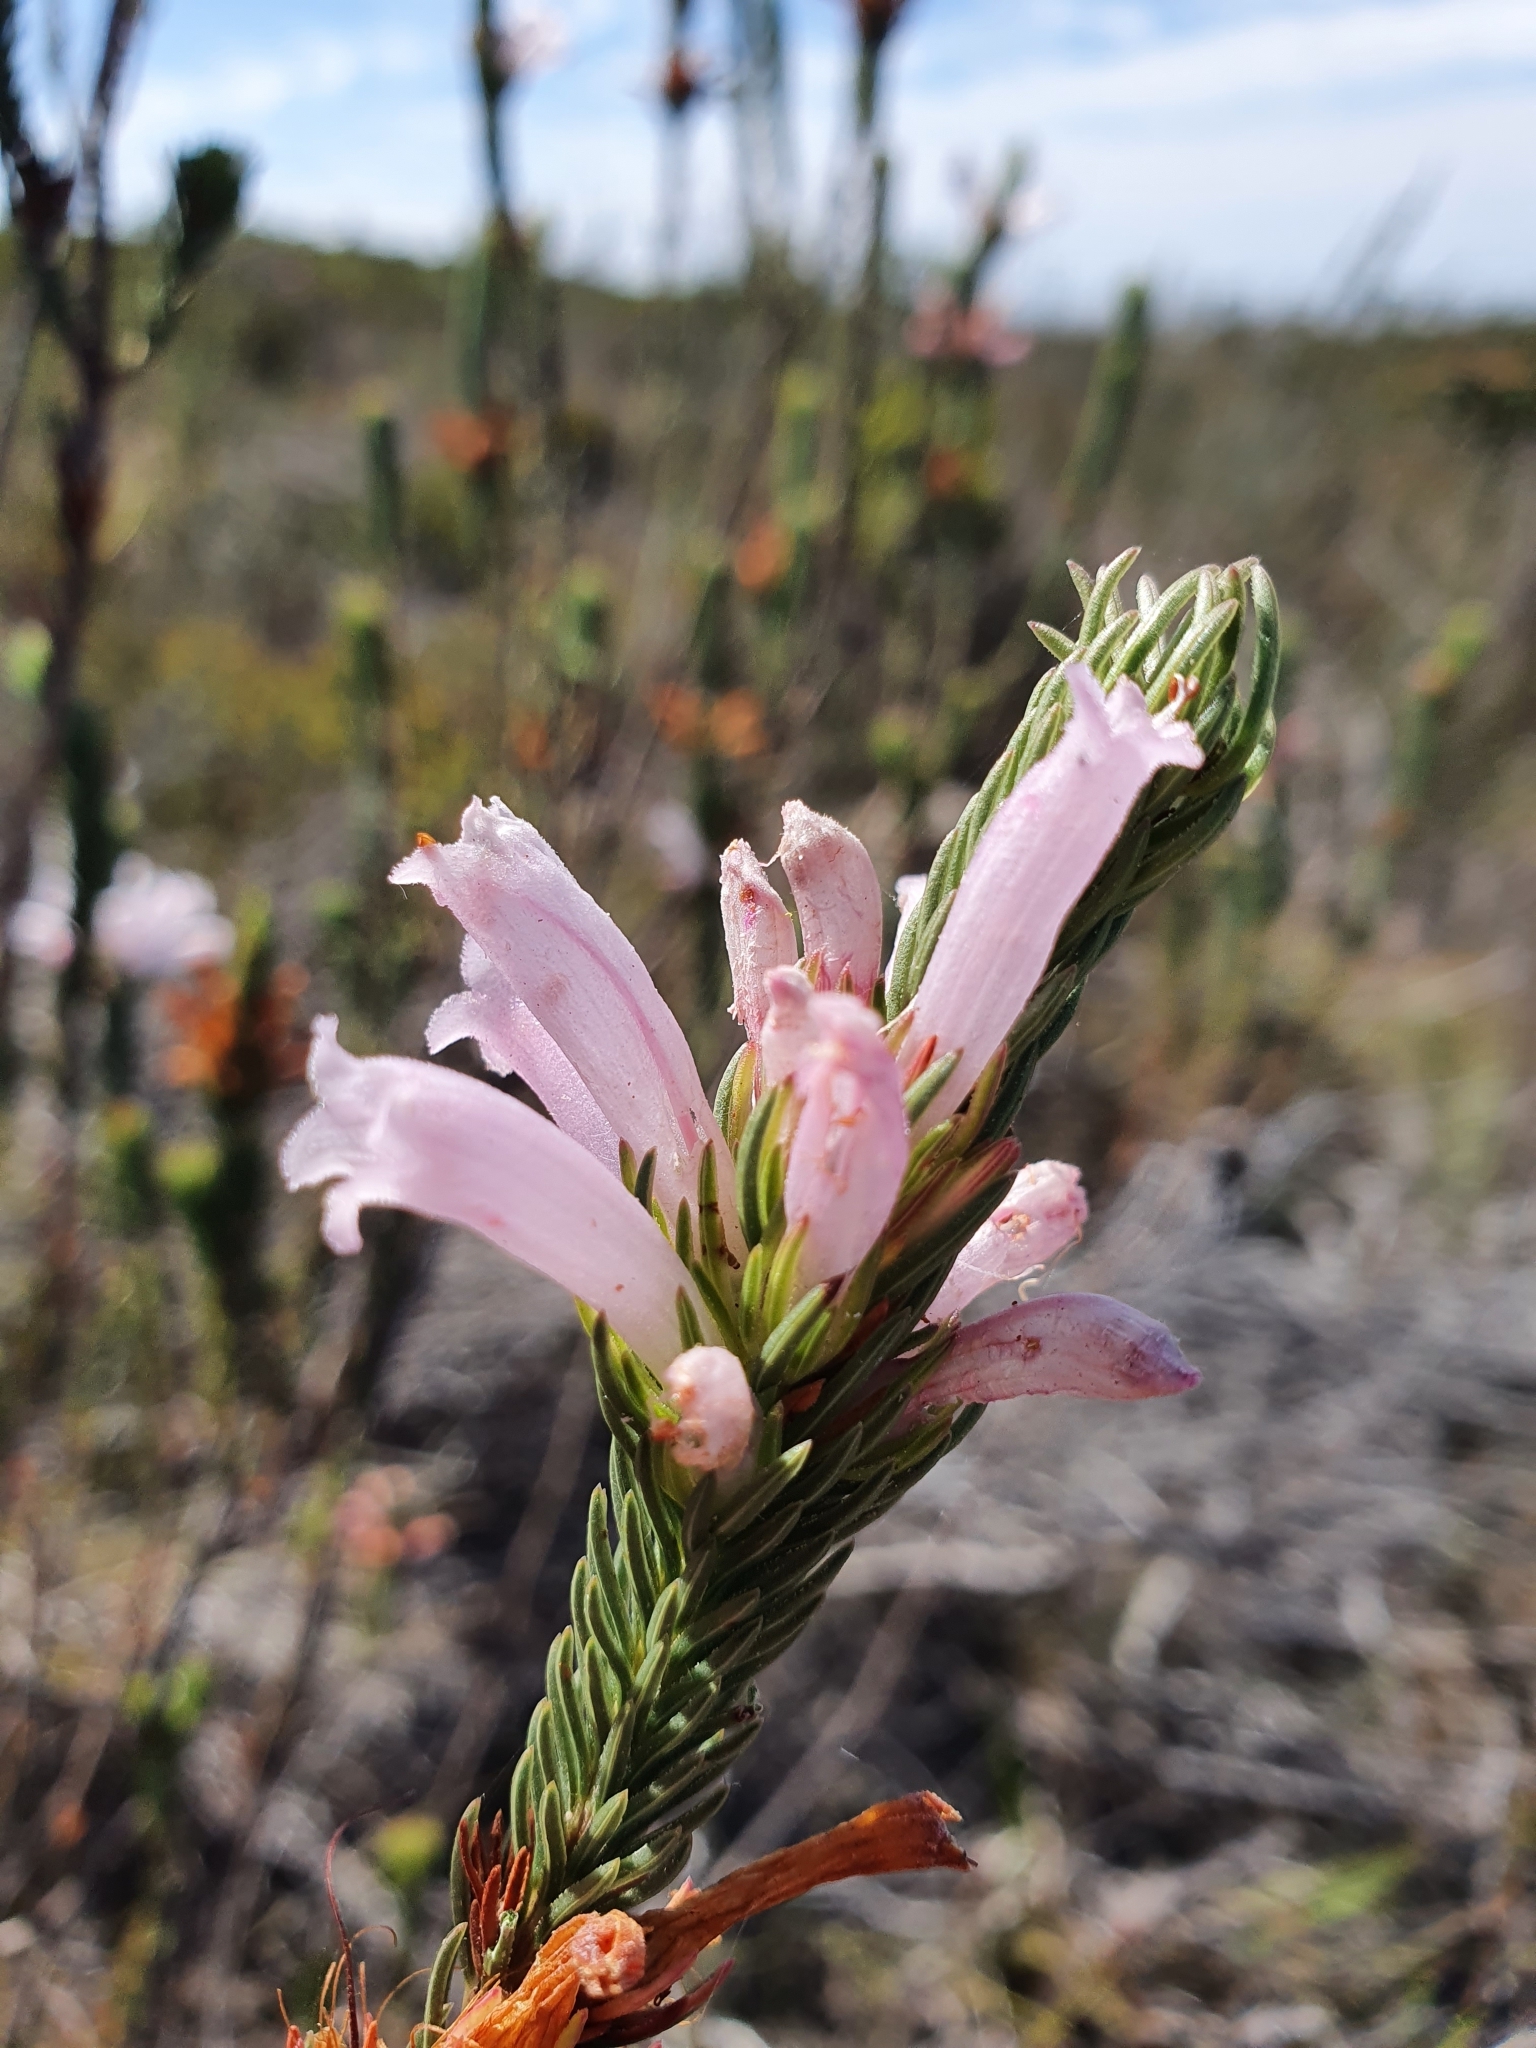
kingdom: Plantae
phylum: Tracheophyta
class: Magnoliopsida
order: Ericales
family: Ericaceae
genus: Erica
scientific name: Erica viscaria
